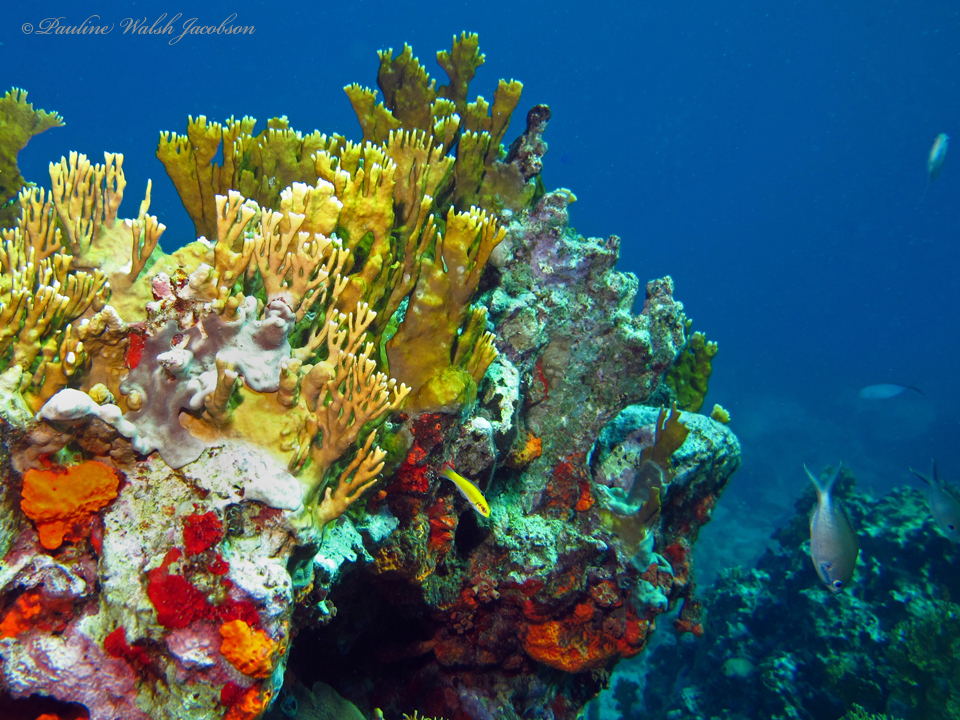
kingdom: Animalia
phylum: Cnidaria
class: Hydrozoa
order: Anthoathecata
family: Milleporidae
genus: Millepora
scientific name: Millepora alcicornis
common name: Branching fire coral
